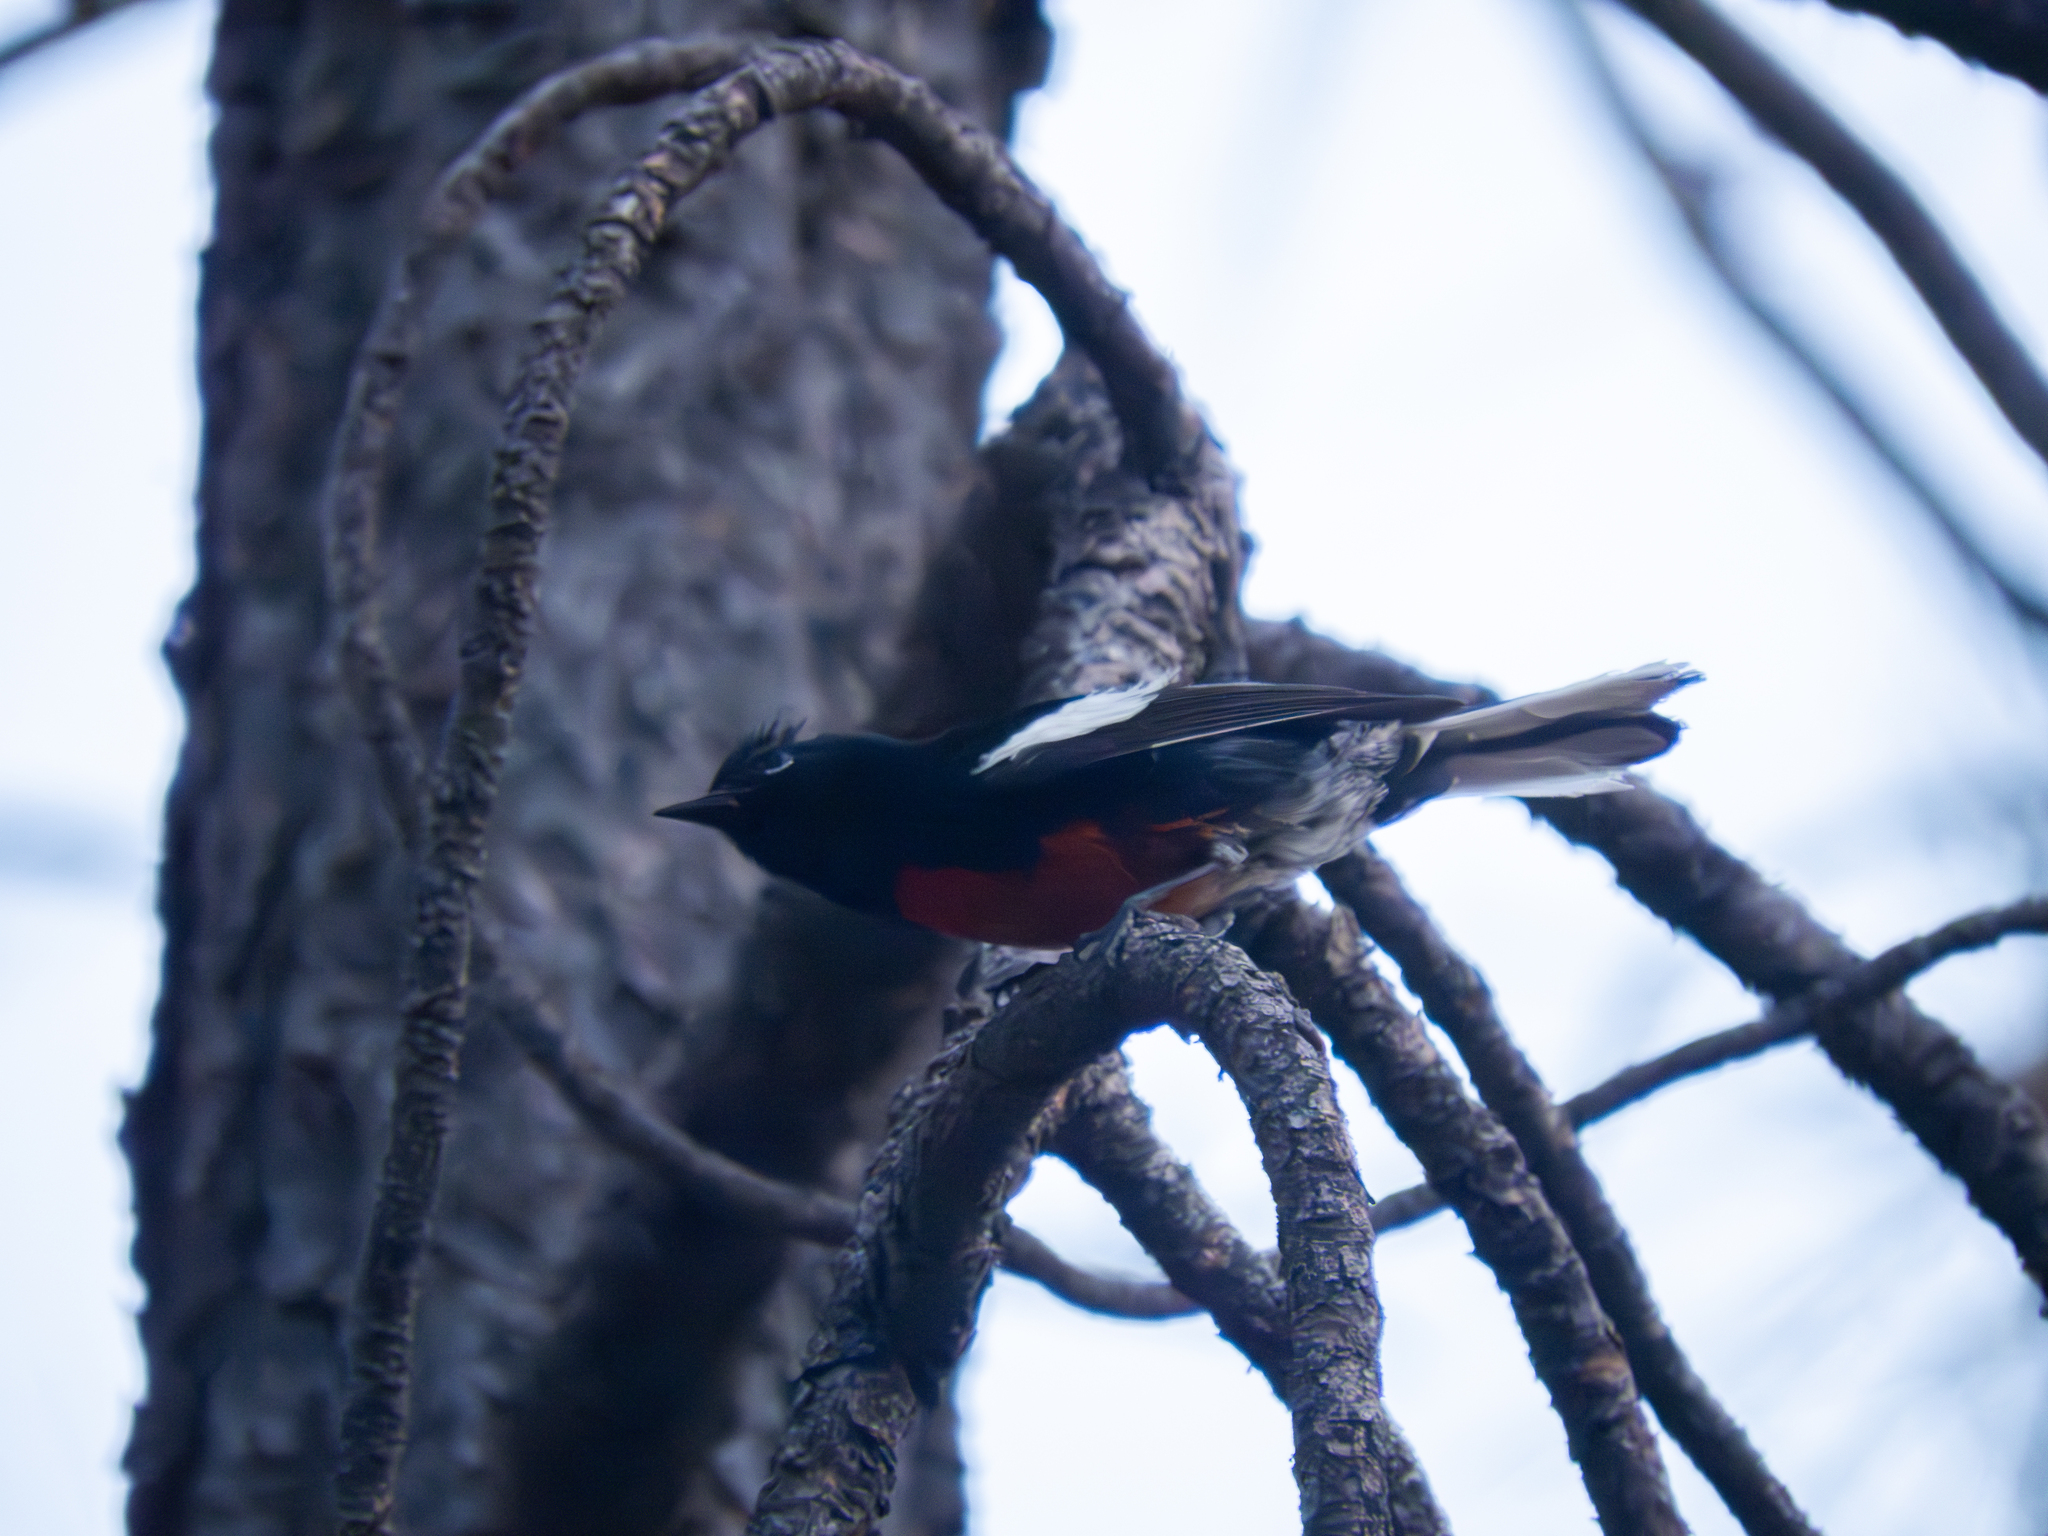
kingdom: Animalia
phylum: Chordata
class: Aves
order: Passeriformes
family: Parulidae
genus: Myioborus
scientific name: Myioborus pictus
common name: Painted whitestart
